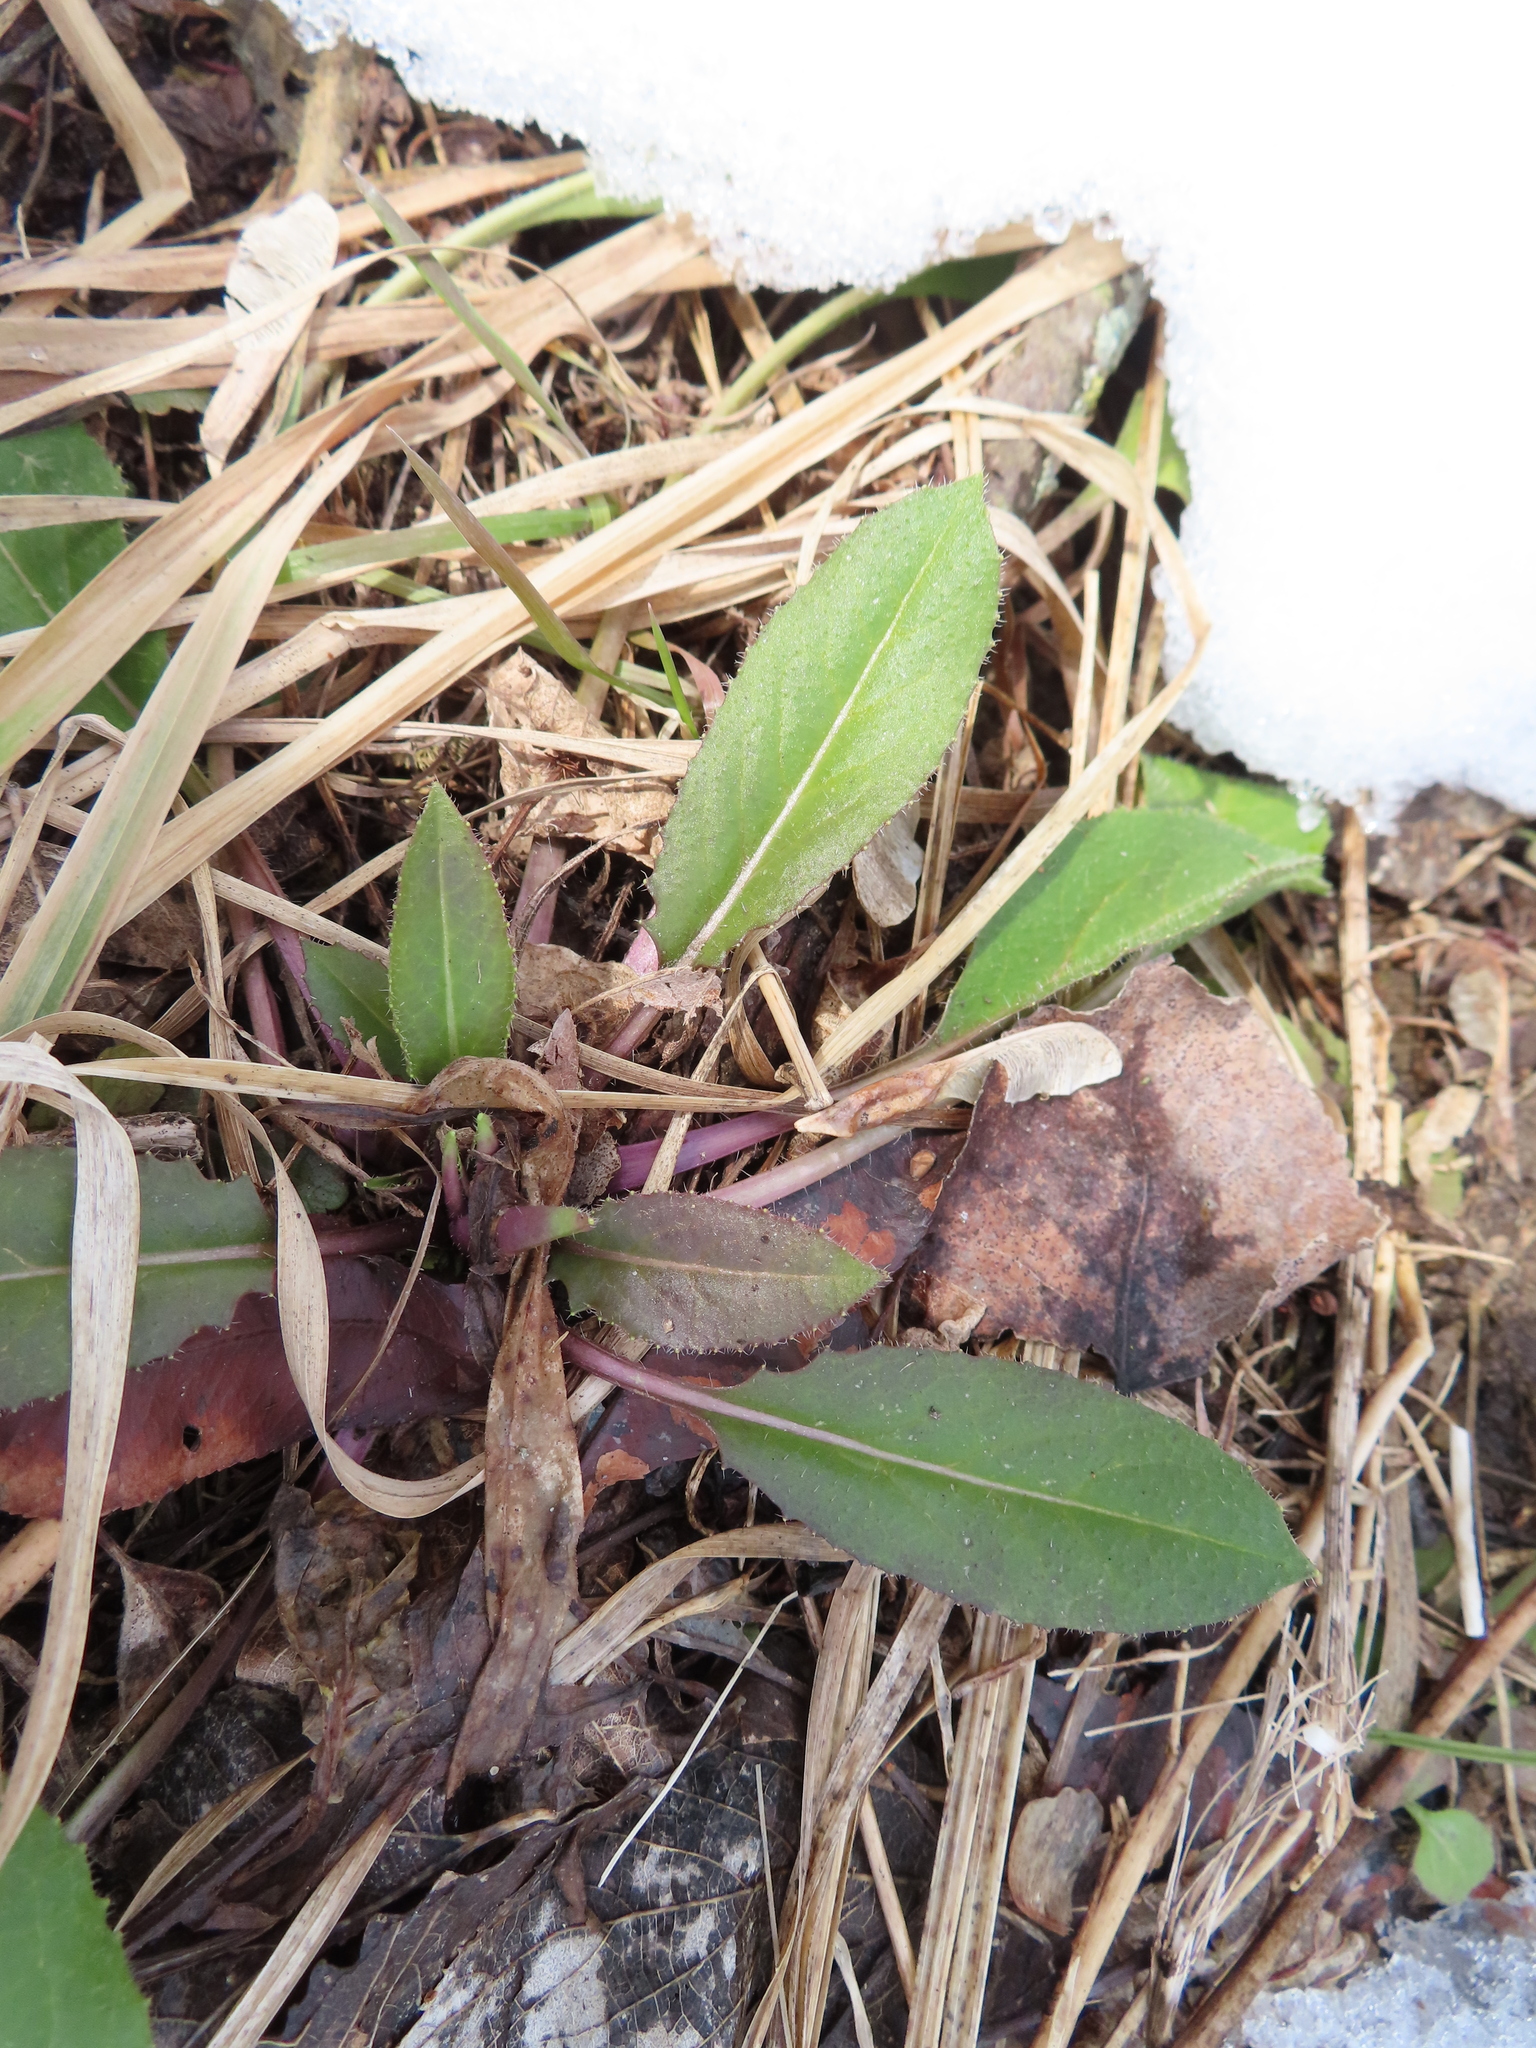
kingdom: Plantae
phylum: Tracheophyta
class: Magnoliopsida
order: Brassicales
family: Brassicaceae
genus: Hesperis
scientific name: Hesperis matronalis
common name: Dame's-violet
